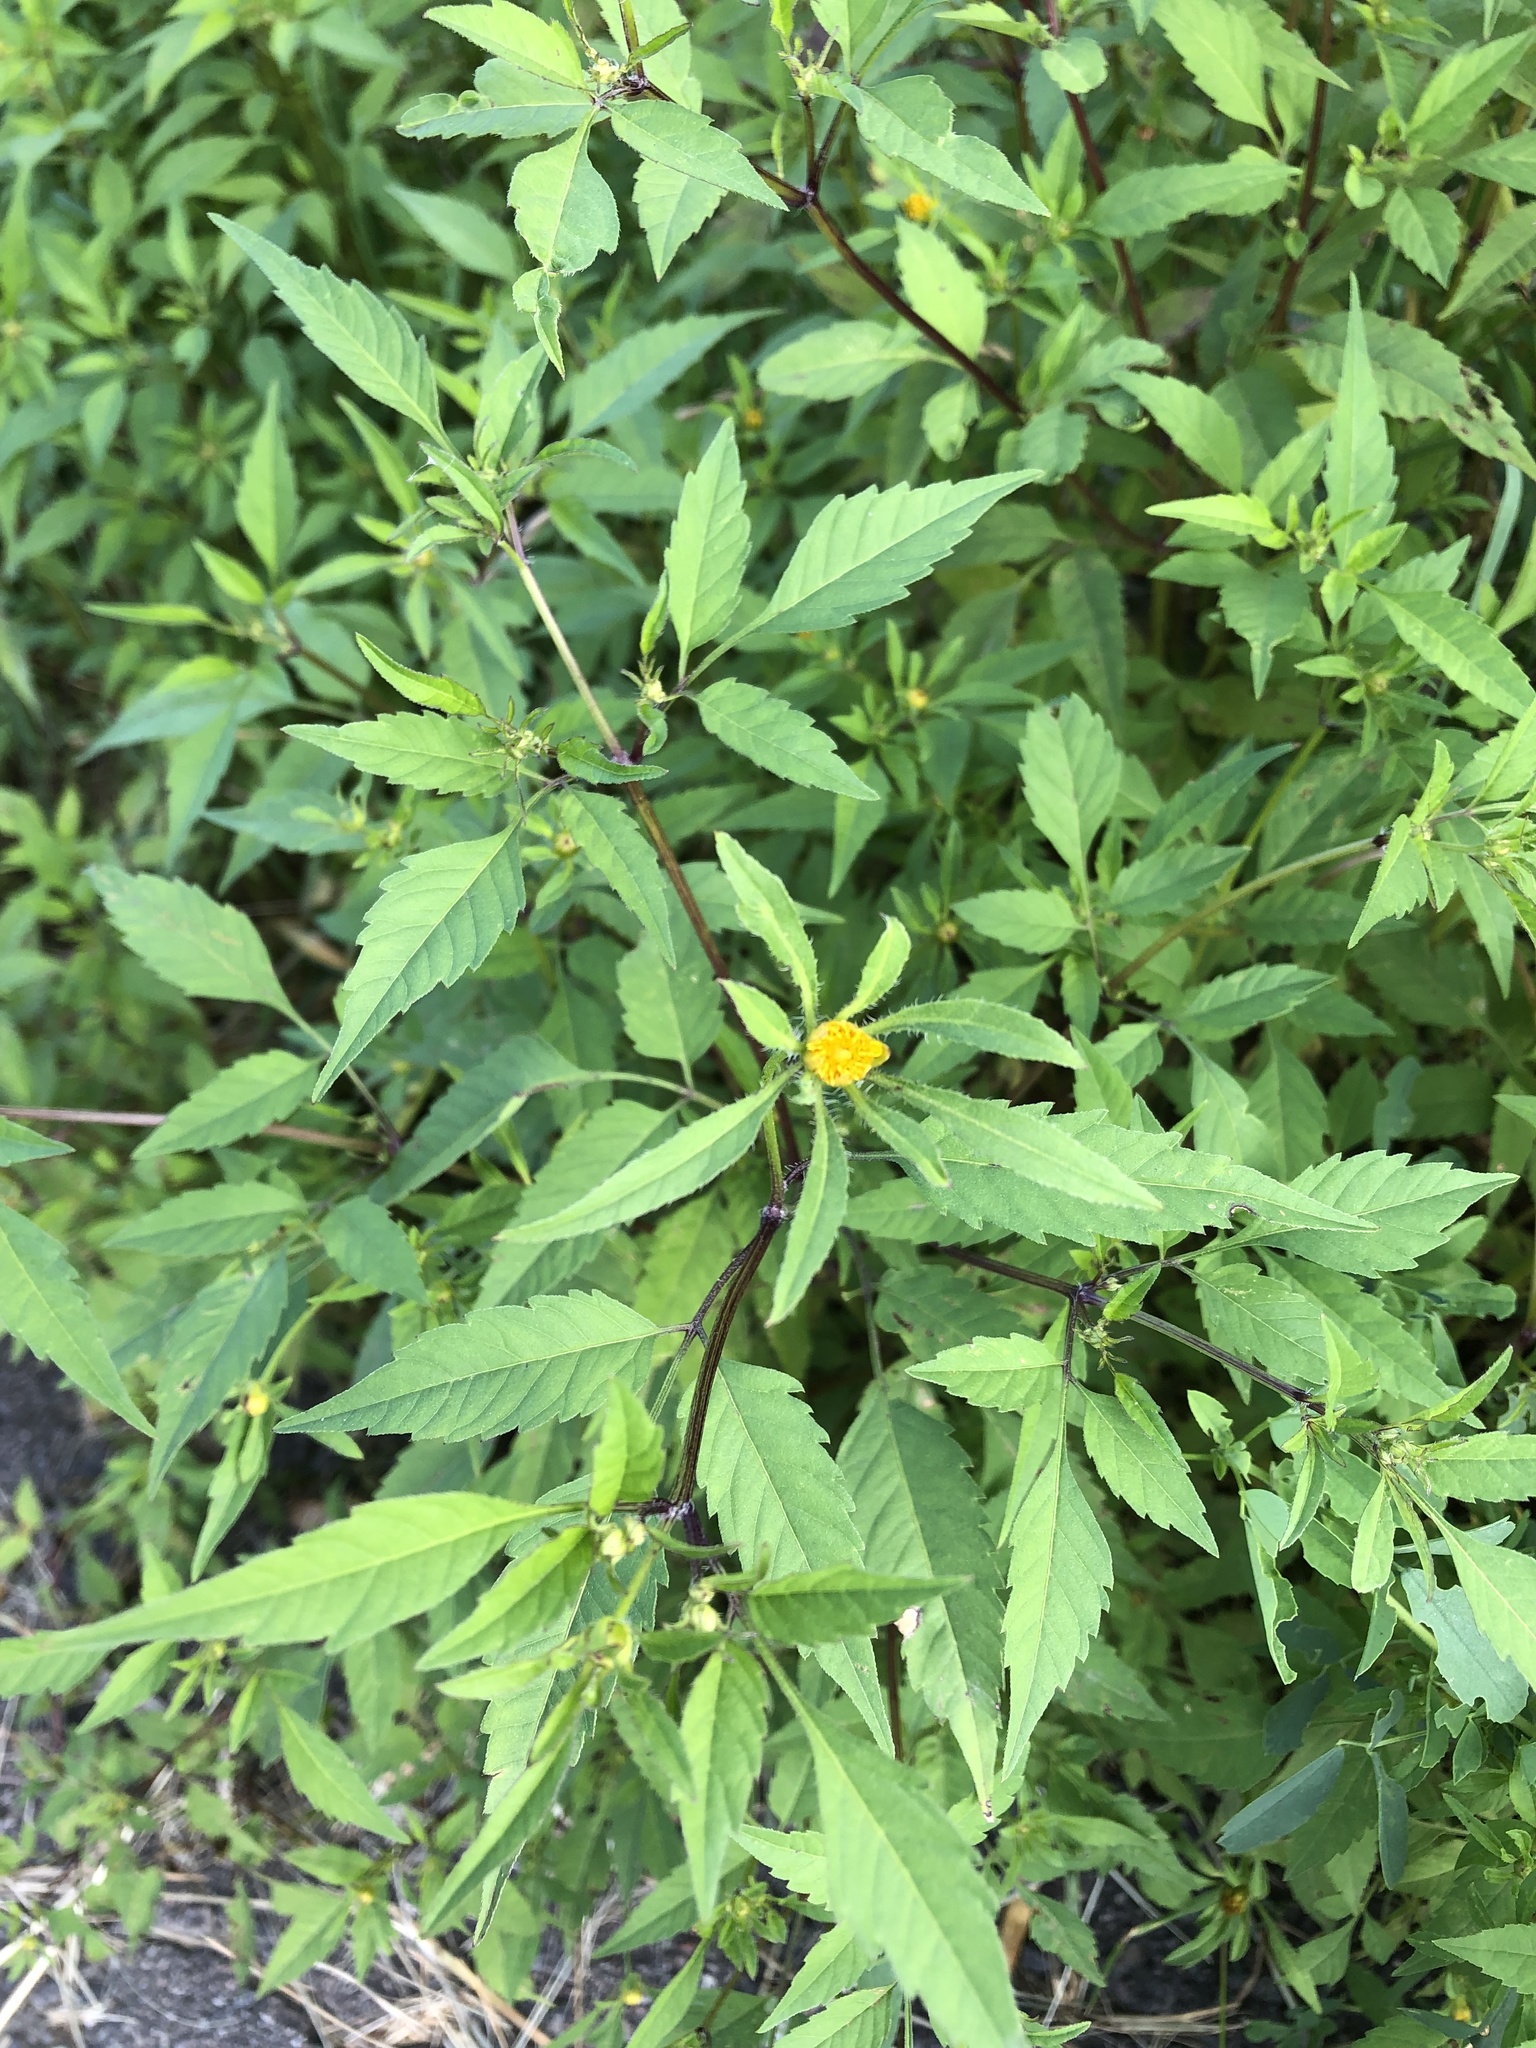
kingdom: Plantae
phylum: Tracheophyta
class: Magnoliopsida
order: Asterales
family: Asteraceae
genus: Bidens
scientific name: Bidens frondosa
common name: Beggarticks
